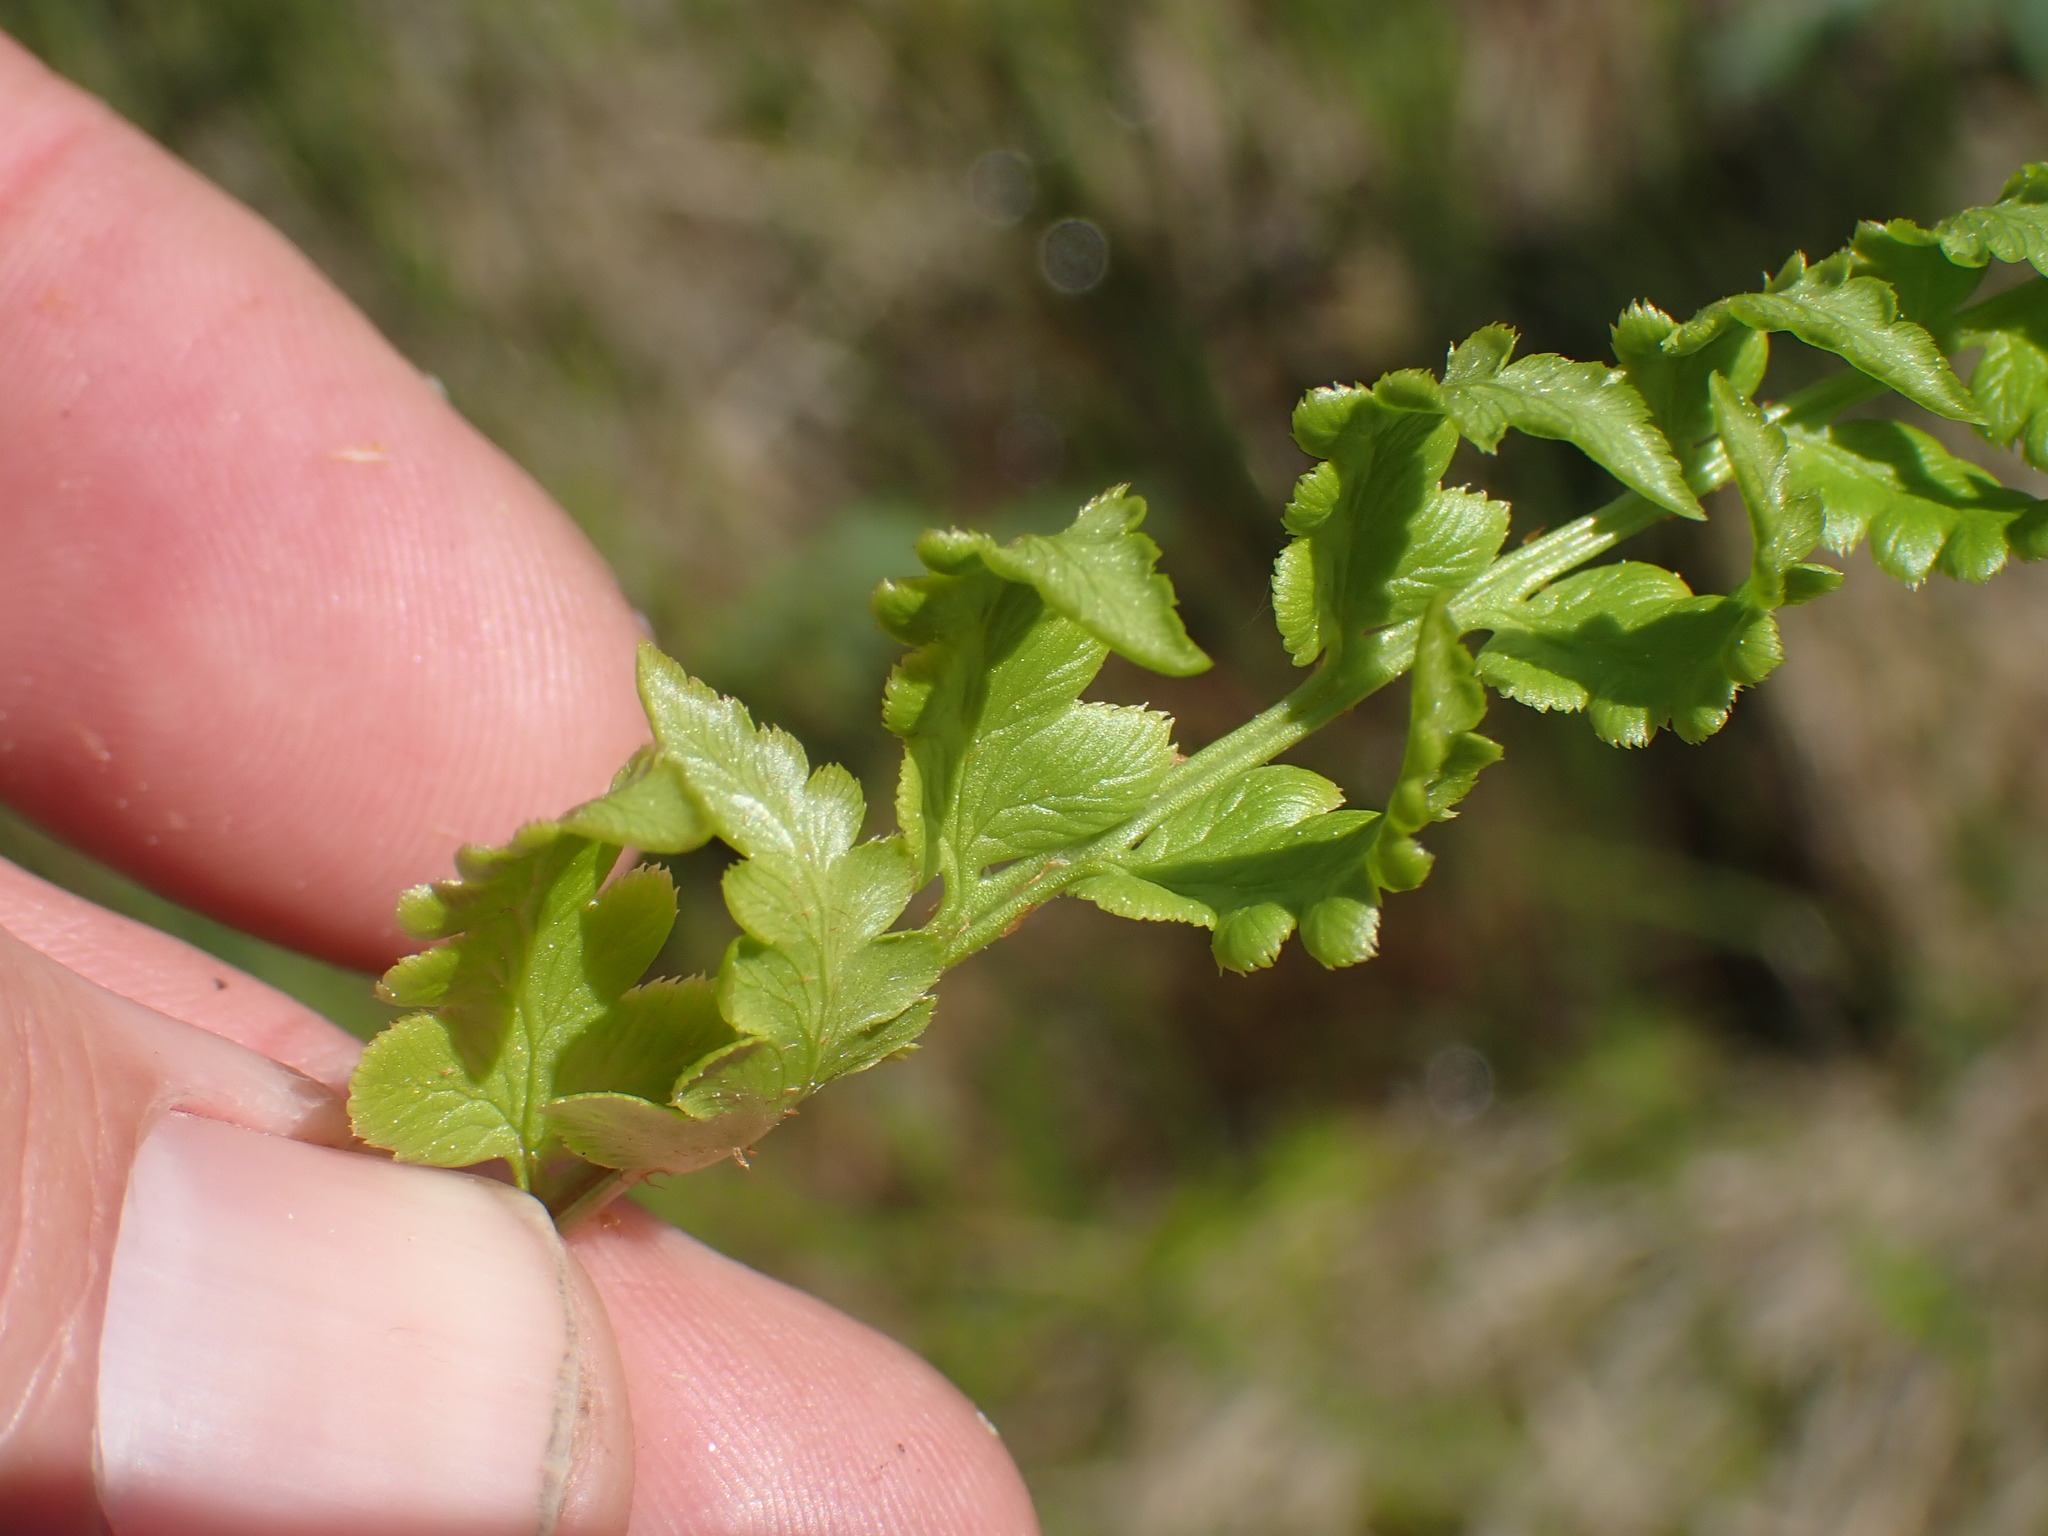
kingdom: Plantae
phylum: Tracheophyta
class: Polypodiopsida
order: Polypodiales
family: Dryopteridaceae
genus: Dryopteris
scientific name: Dryopteris cristata
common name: Crested wood fern
